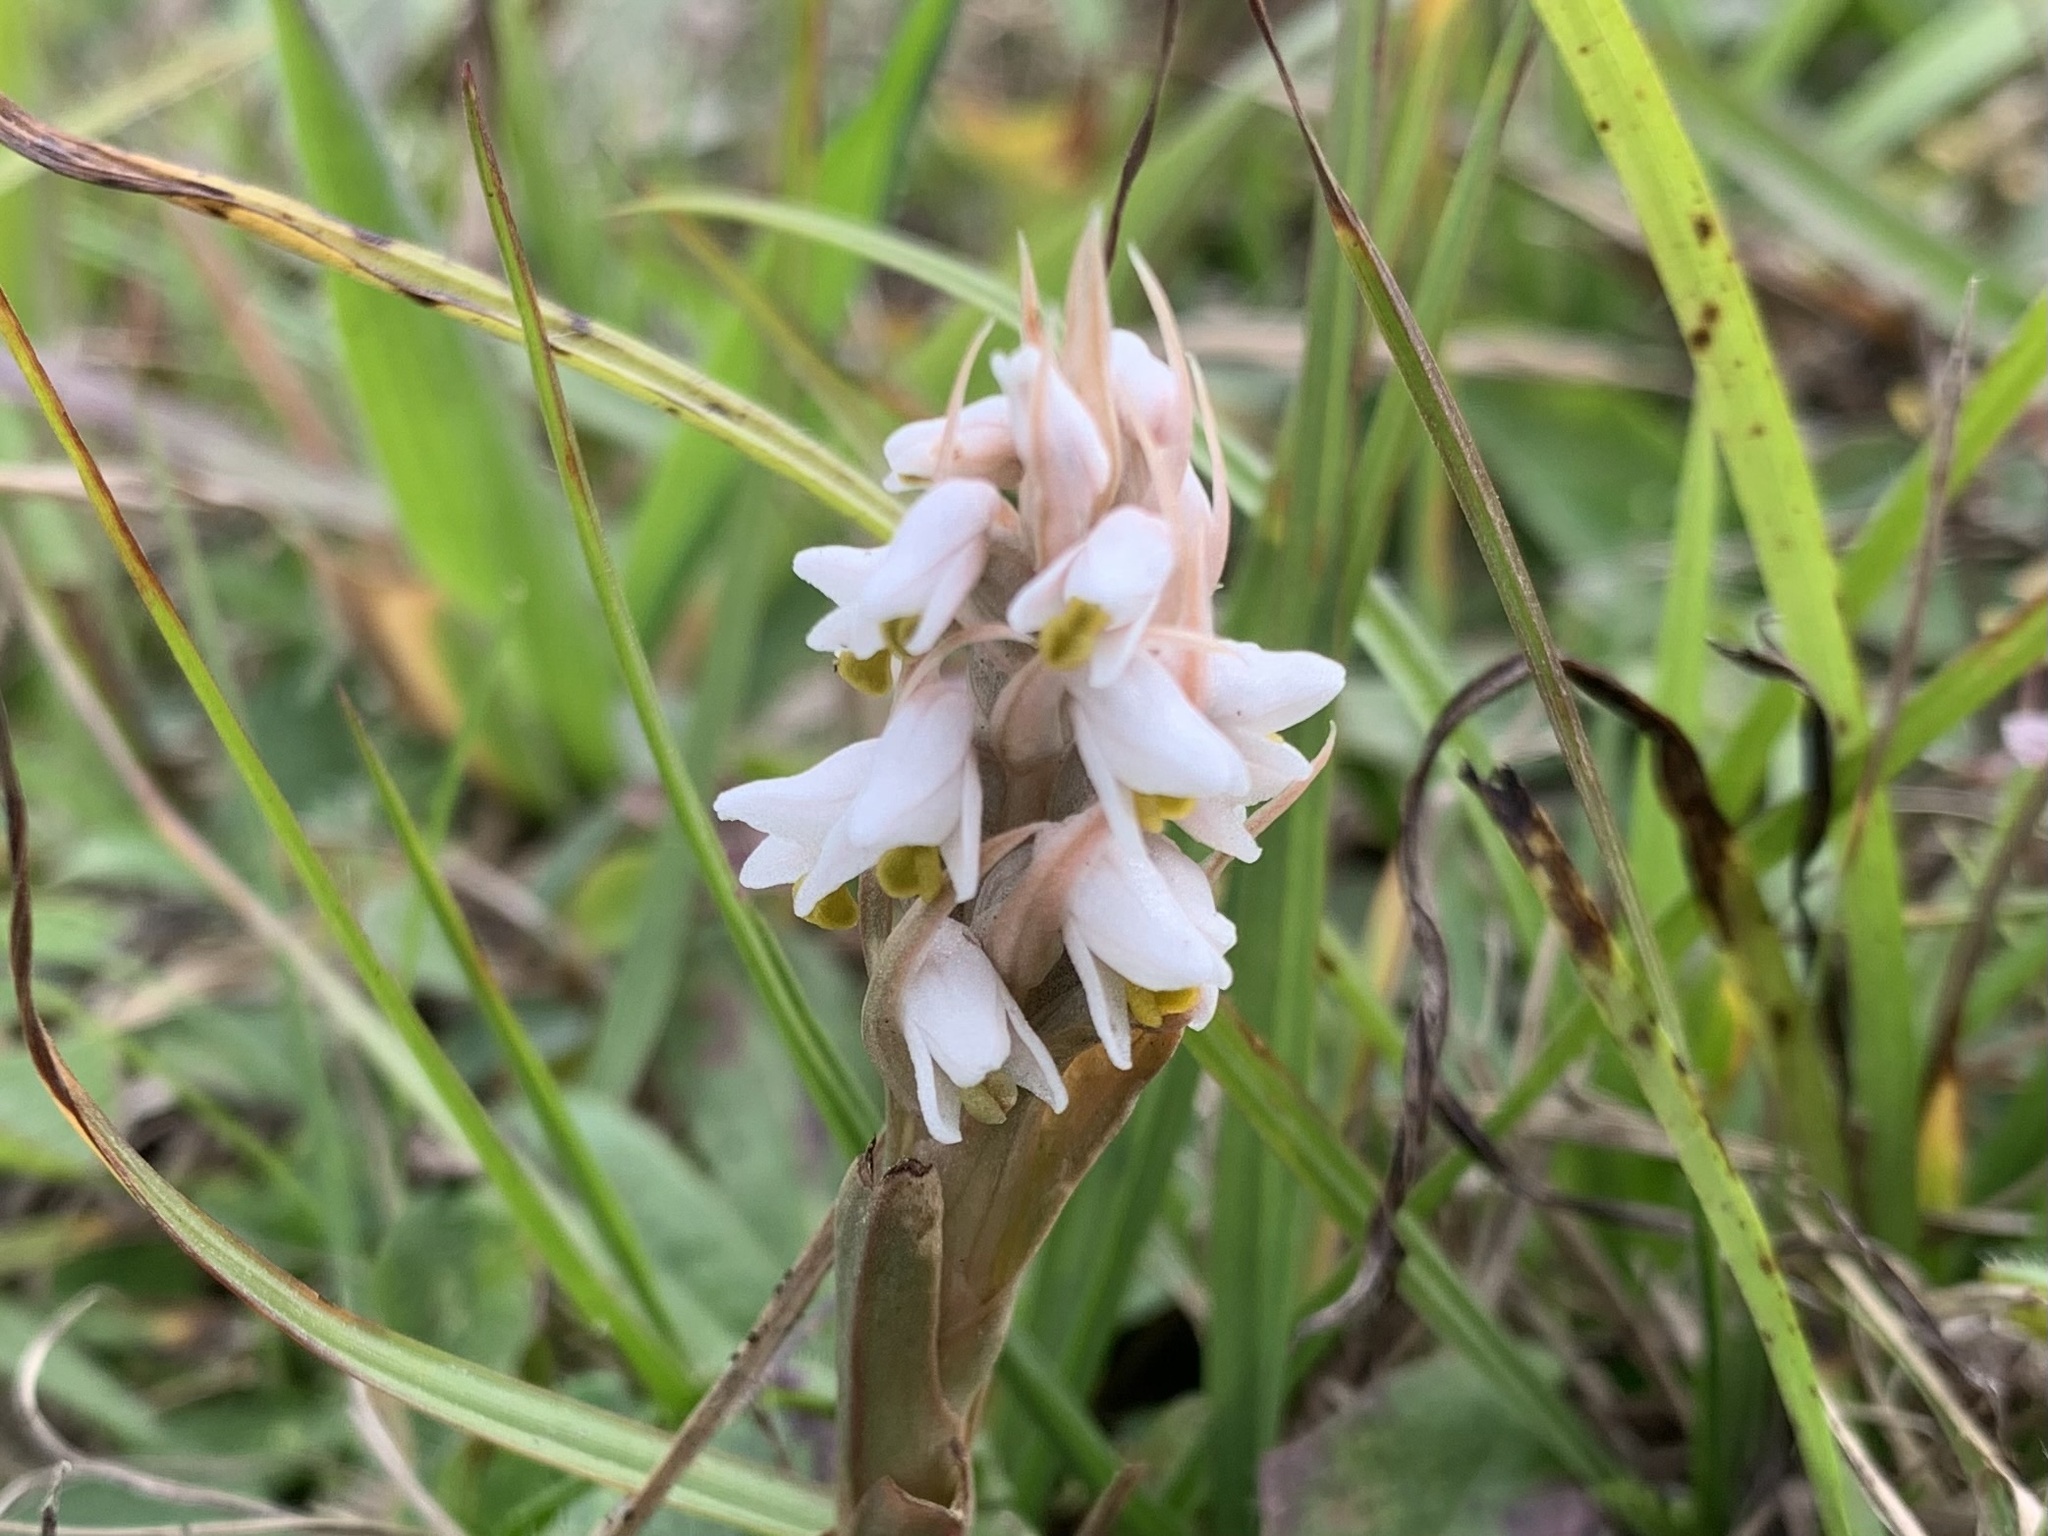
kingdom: Plantae
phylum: Tracheophyta
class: Liliopsida
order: Asparagales
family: Orchidaceae
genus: Zeuxine
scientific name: Zeuxine strateumatica
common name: Soldier's orchid
